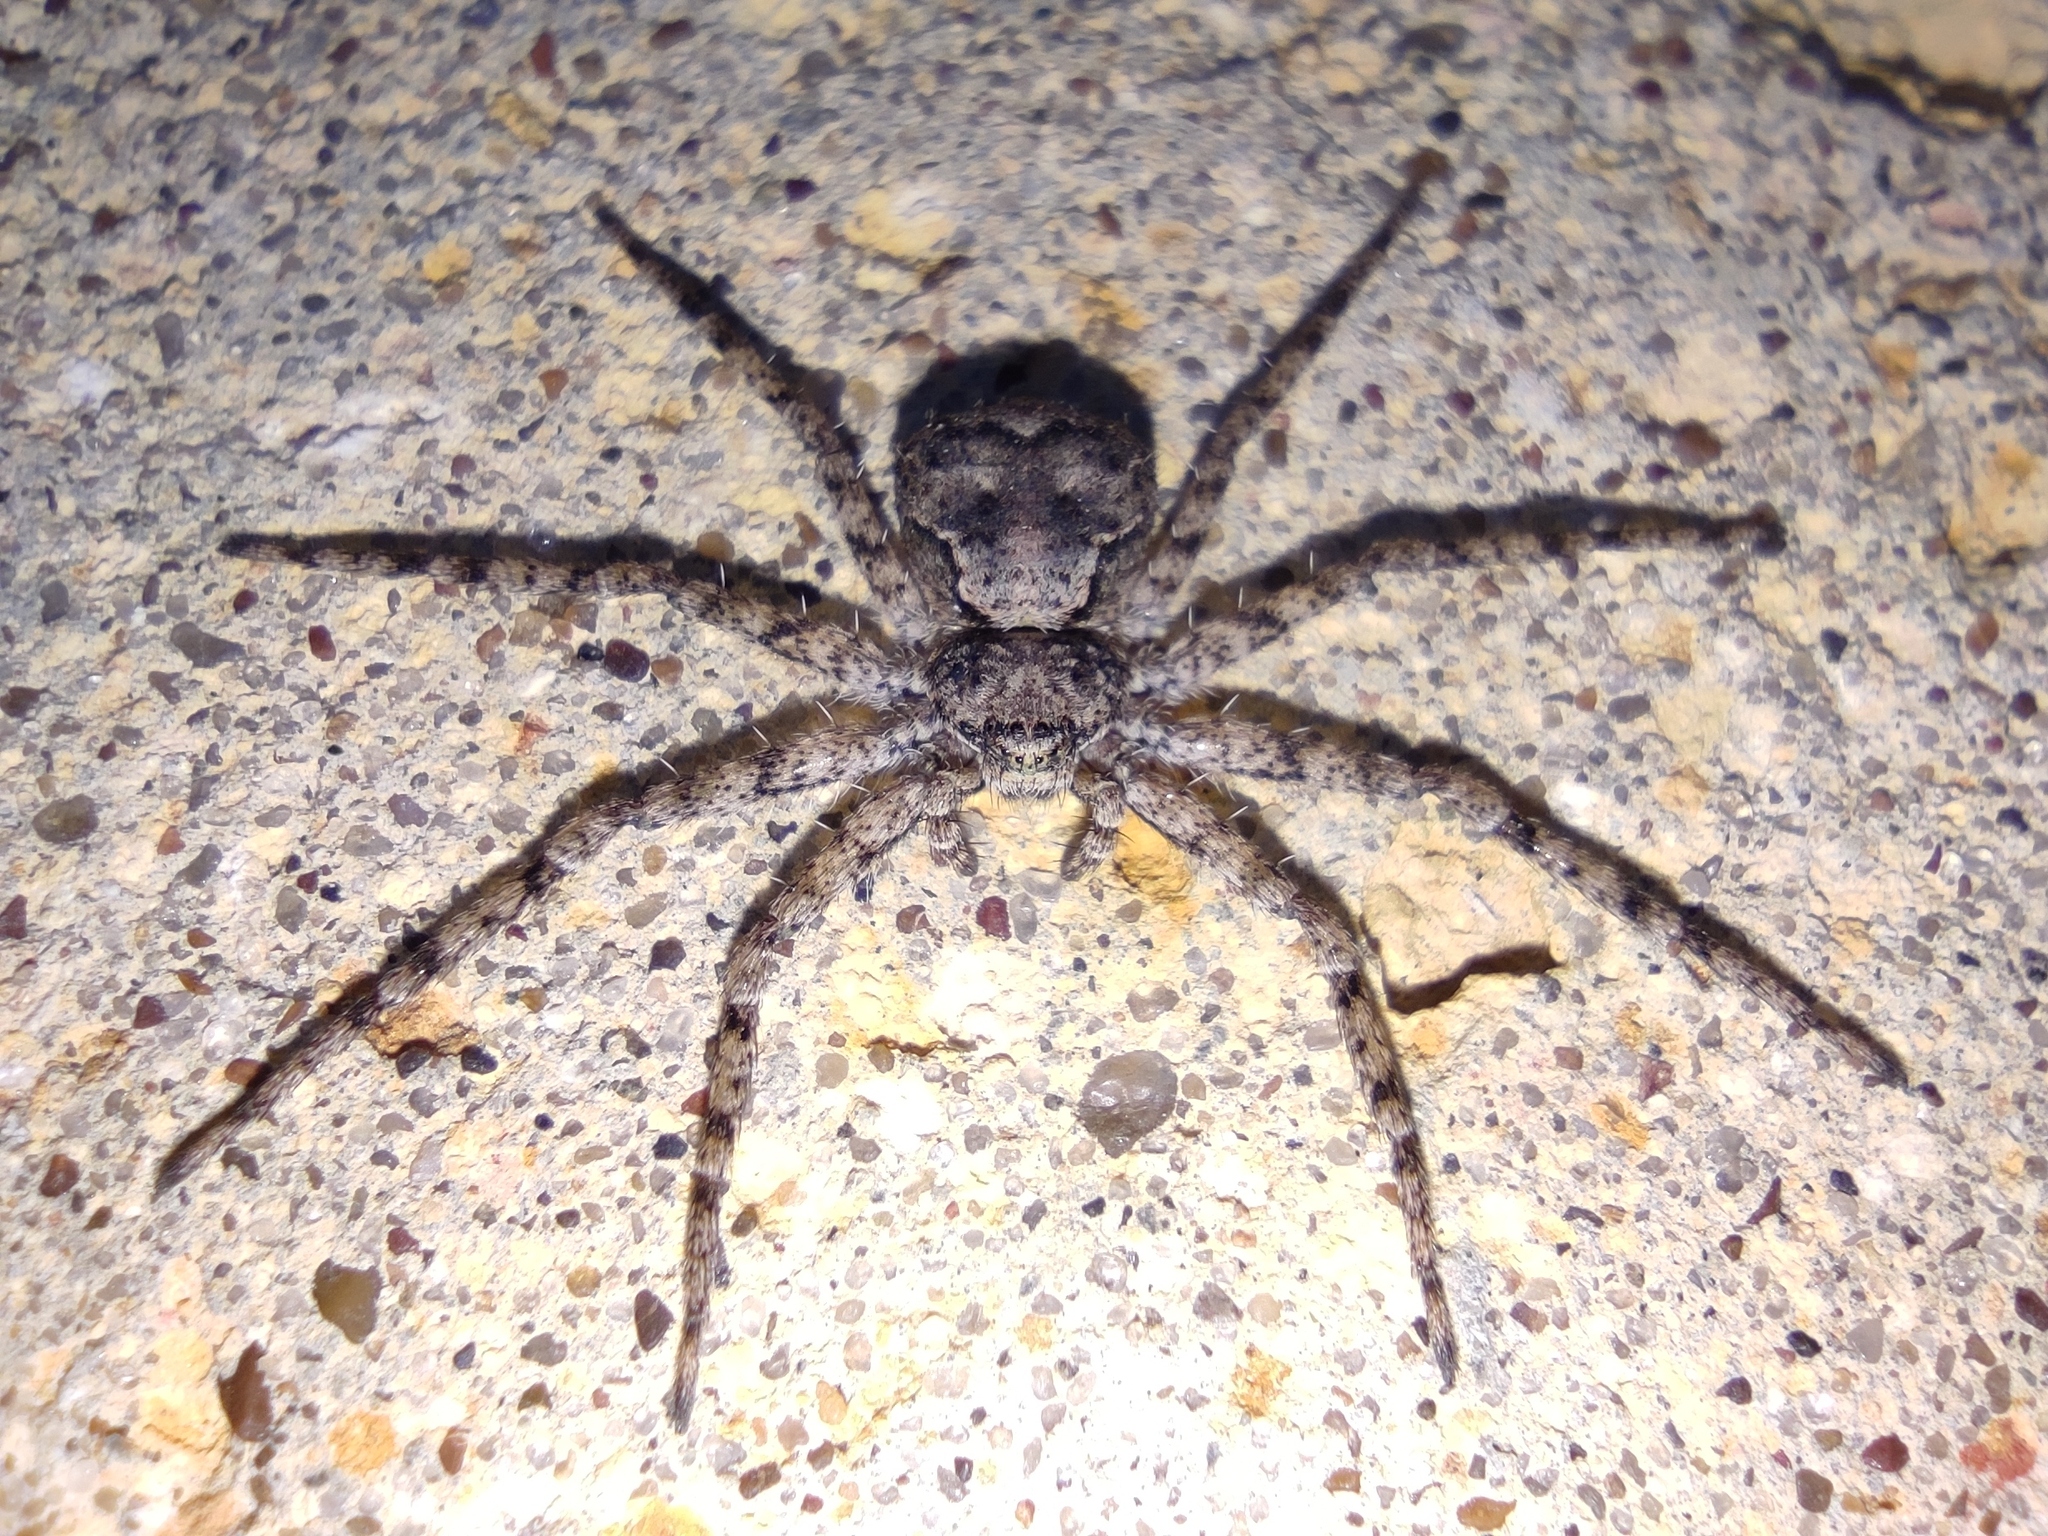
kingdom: Animalia
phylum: Arthropoda
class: Arachnida
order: Araneae
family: Philodromidae
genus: Philodromus
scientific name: Philodromus poecilus
